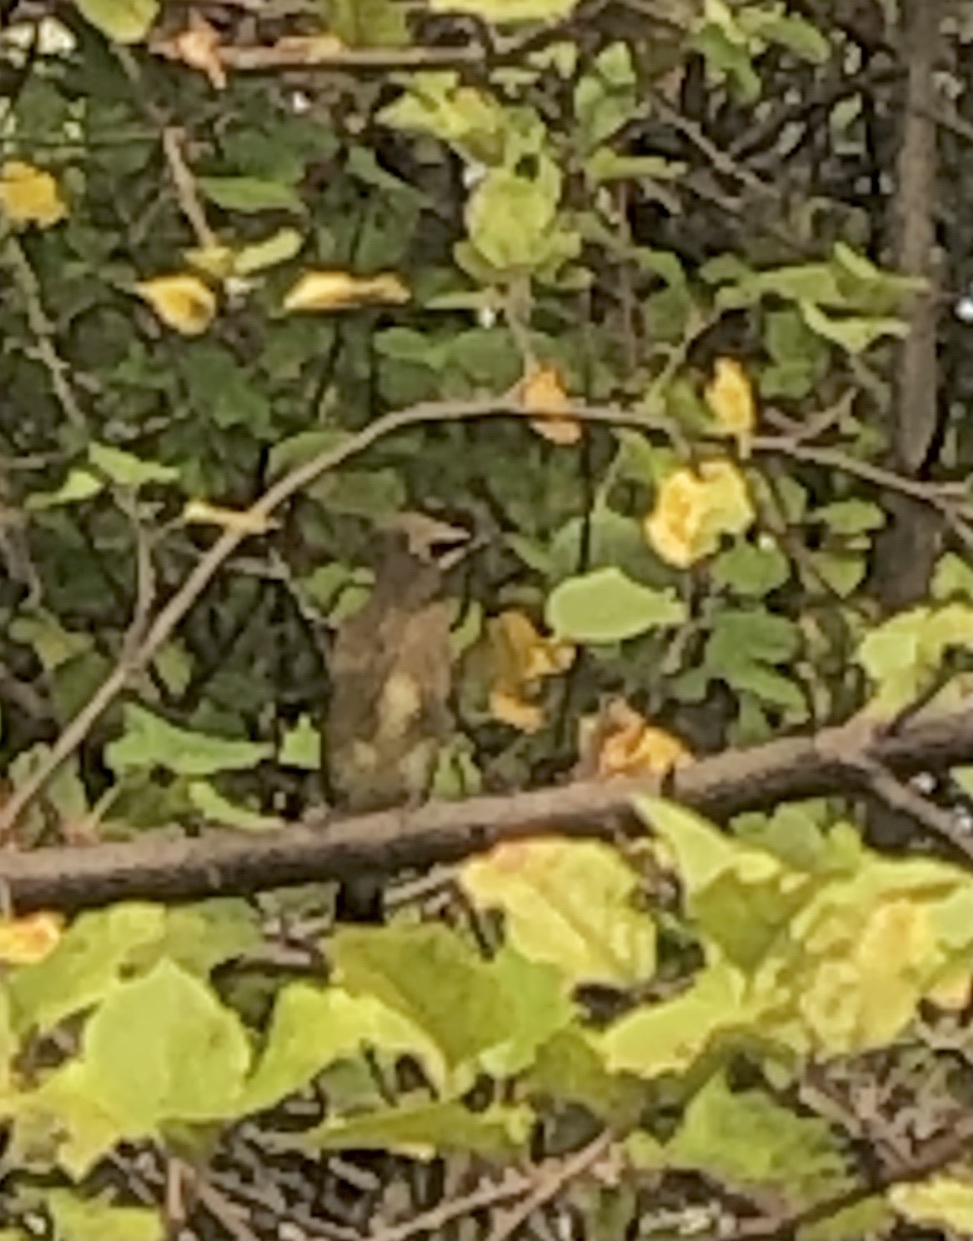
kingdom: Animalia
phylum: Chordata
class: Aves
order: Passeriformes
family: Bombycillidae
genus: Bombycilla
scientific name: Bombycilla cedrorum
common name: Cedar waxwing
